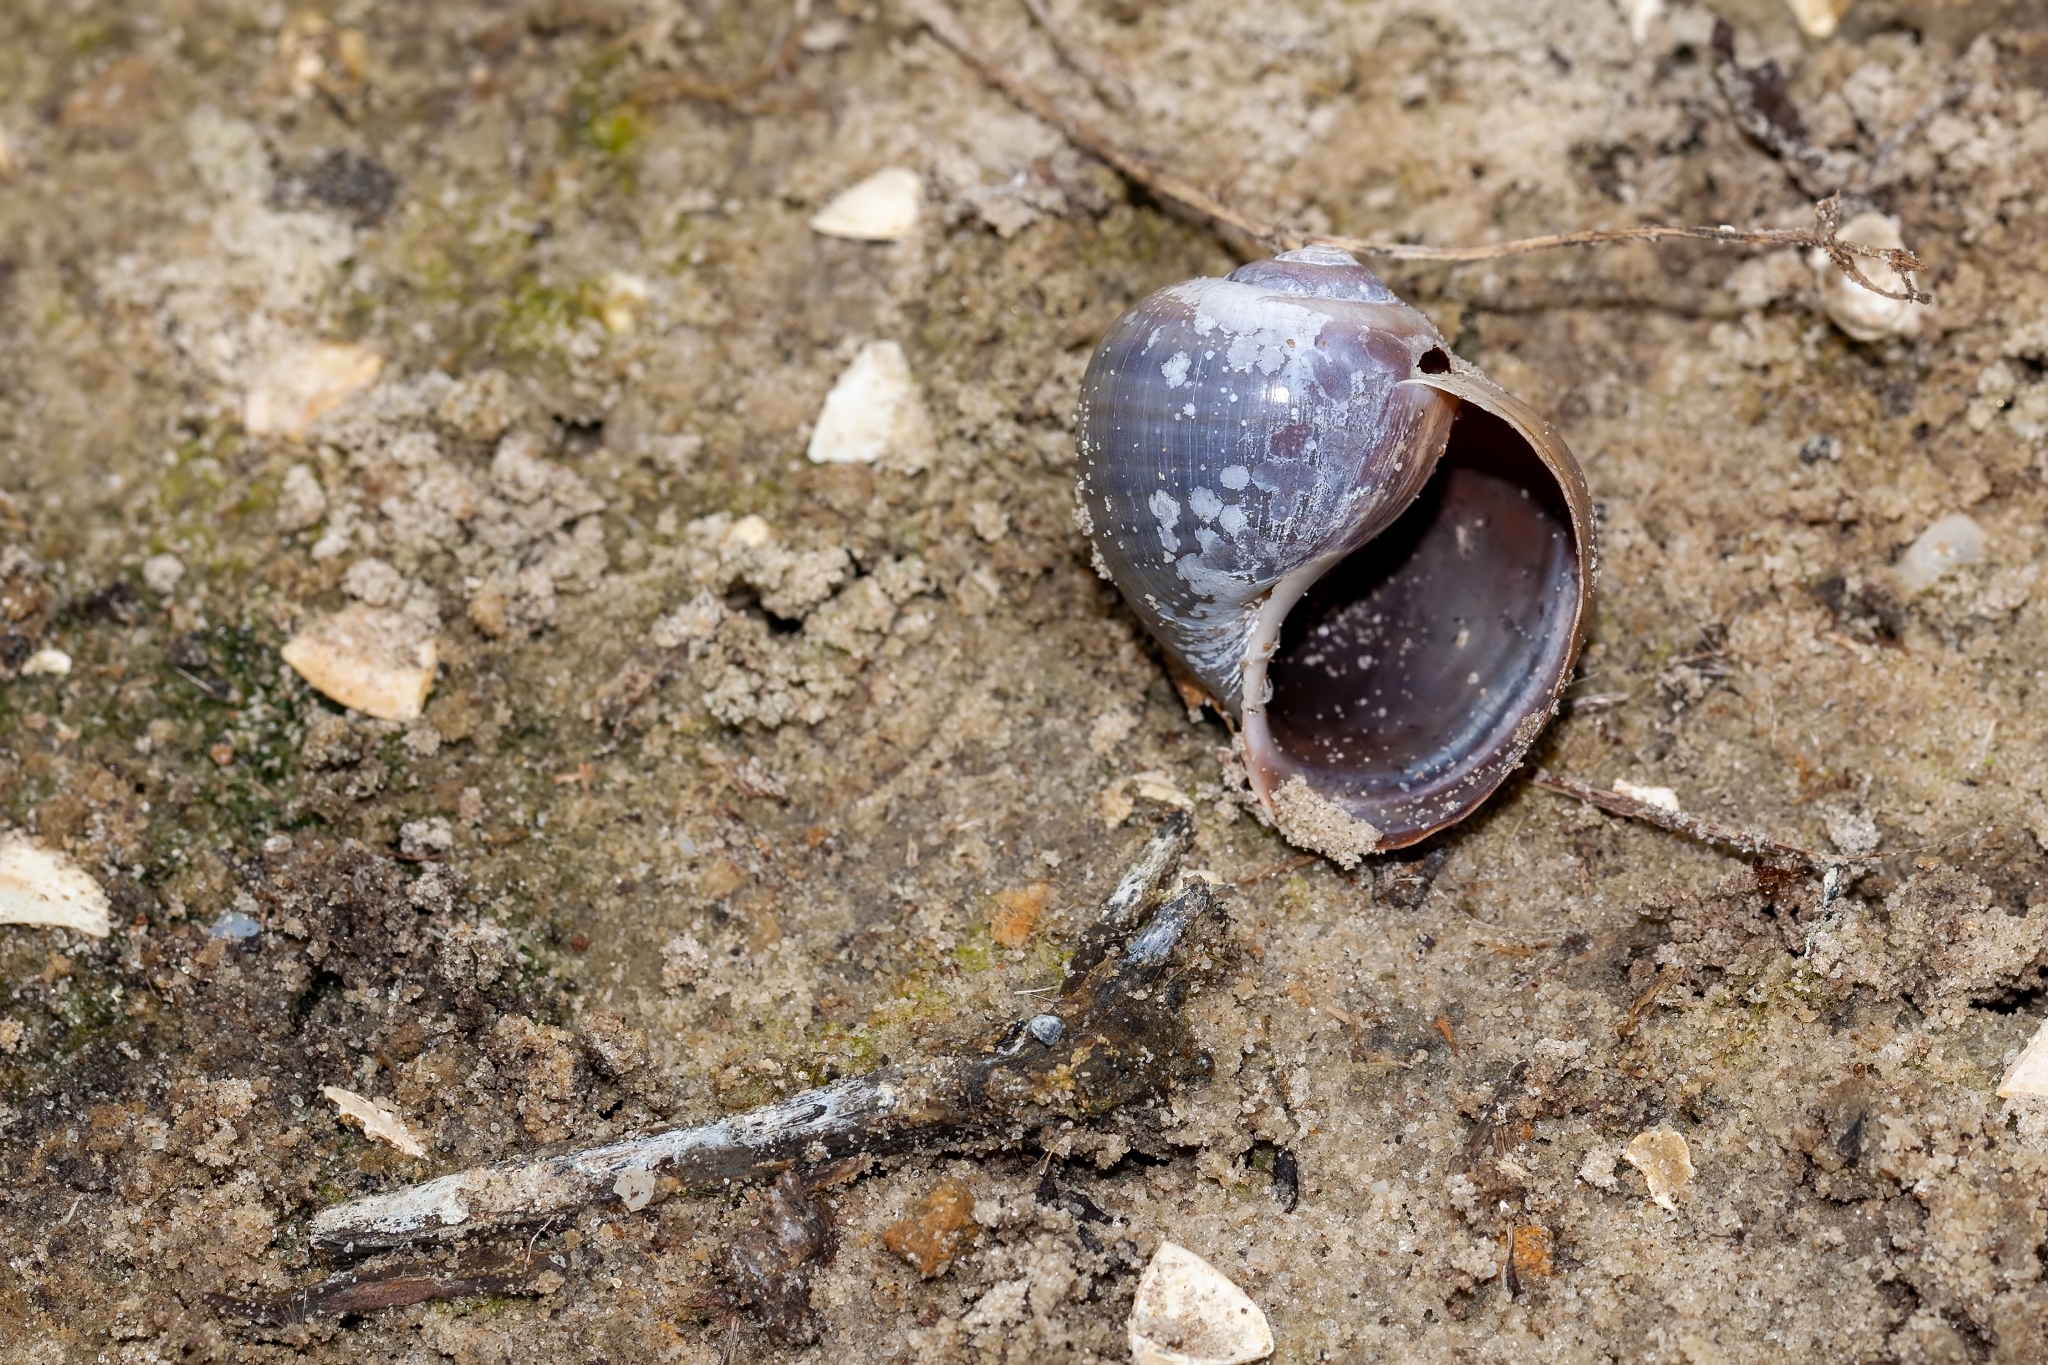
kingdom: Animalia
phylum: Mollusca
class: Gastropoda
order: Architaenioglossa
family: Ampullariidae
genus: Pomacea
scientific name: Pomacea paludosa
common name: Florida applesnail
